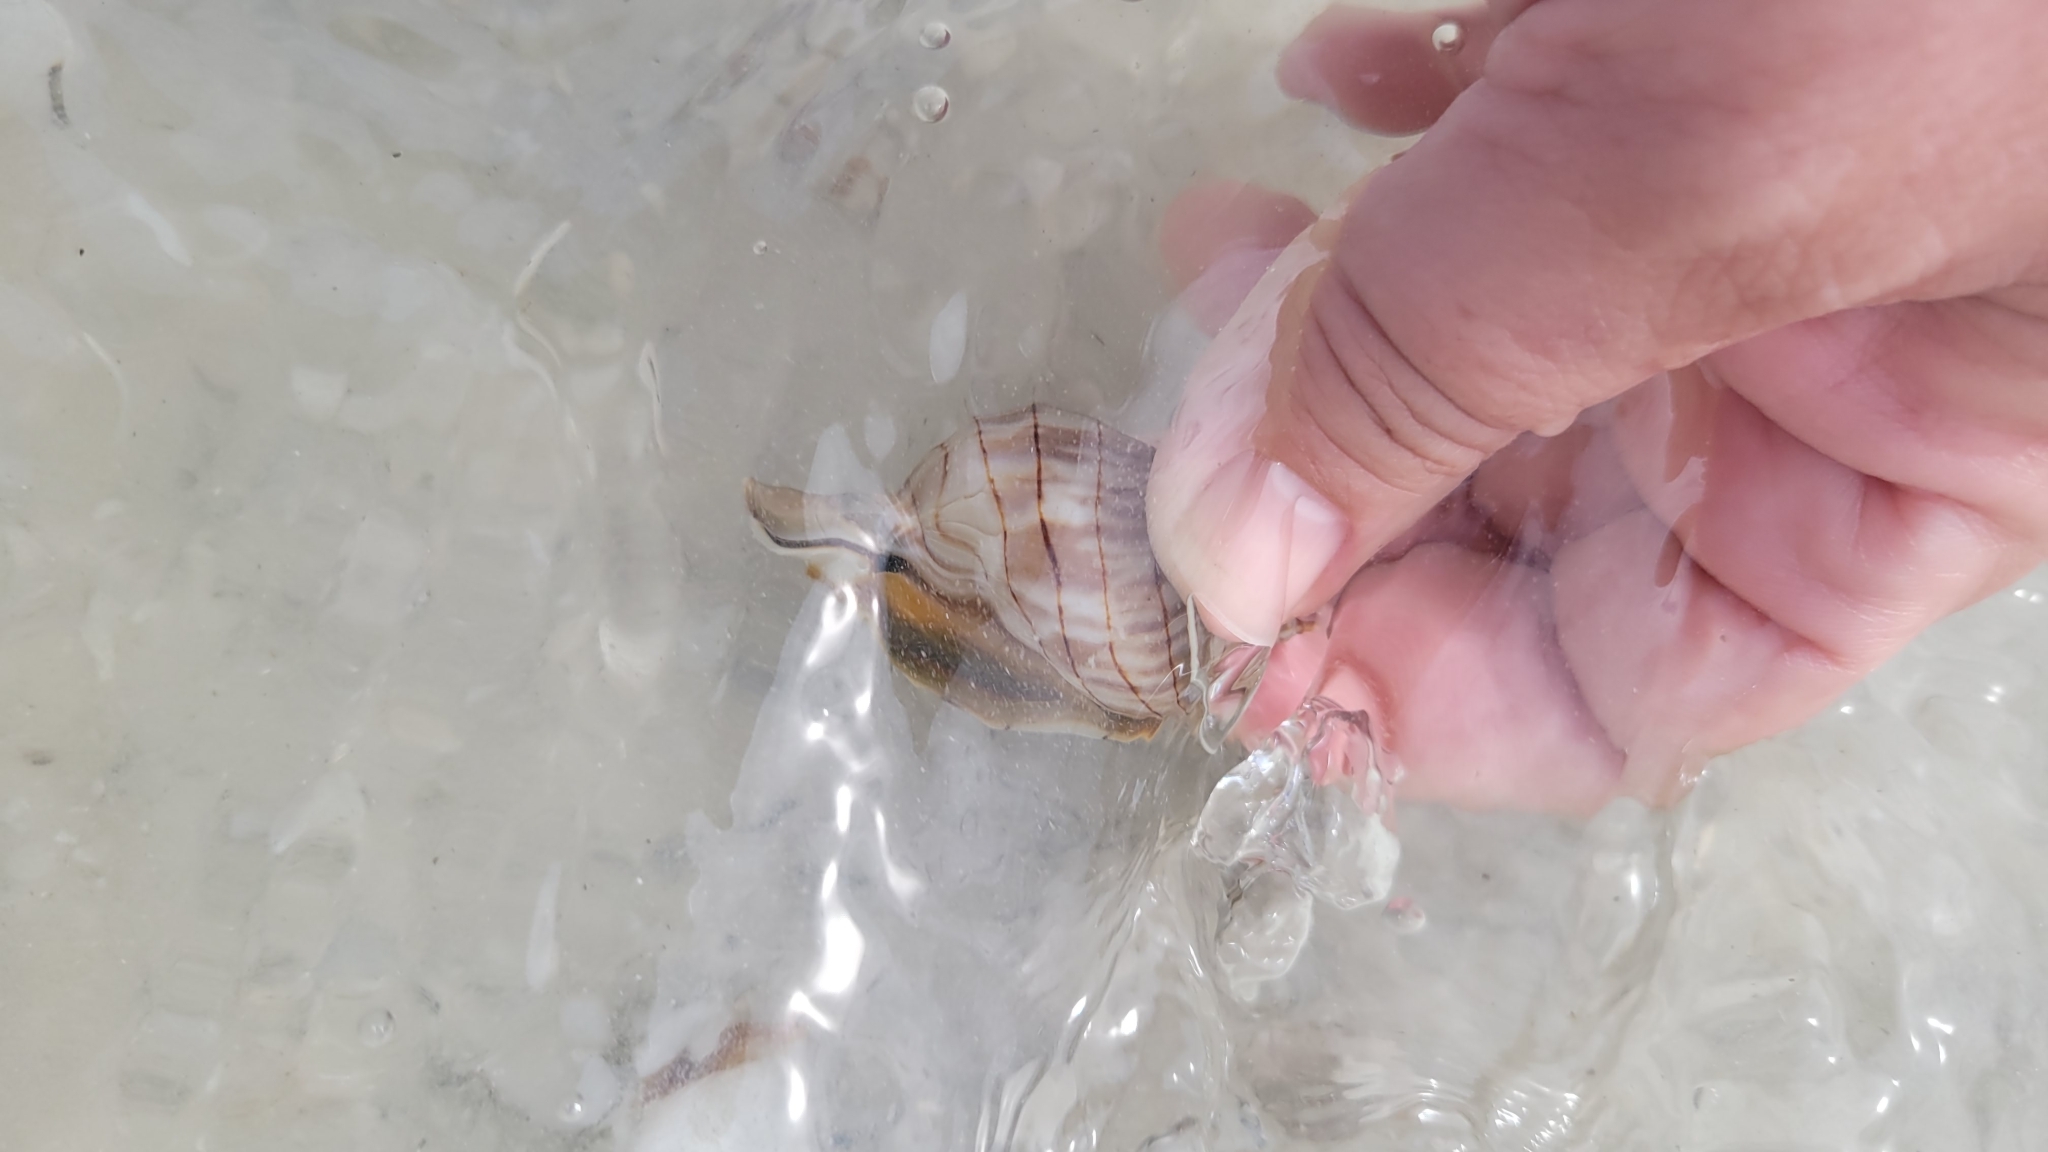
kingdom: Animalia
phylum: Mollusca
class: Gastropoda
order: Neogastropoda
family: Fasciolariidae
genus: Cinctura
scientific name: Cinctura hunteria
